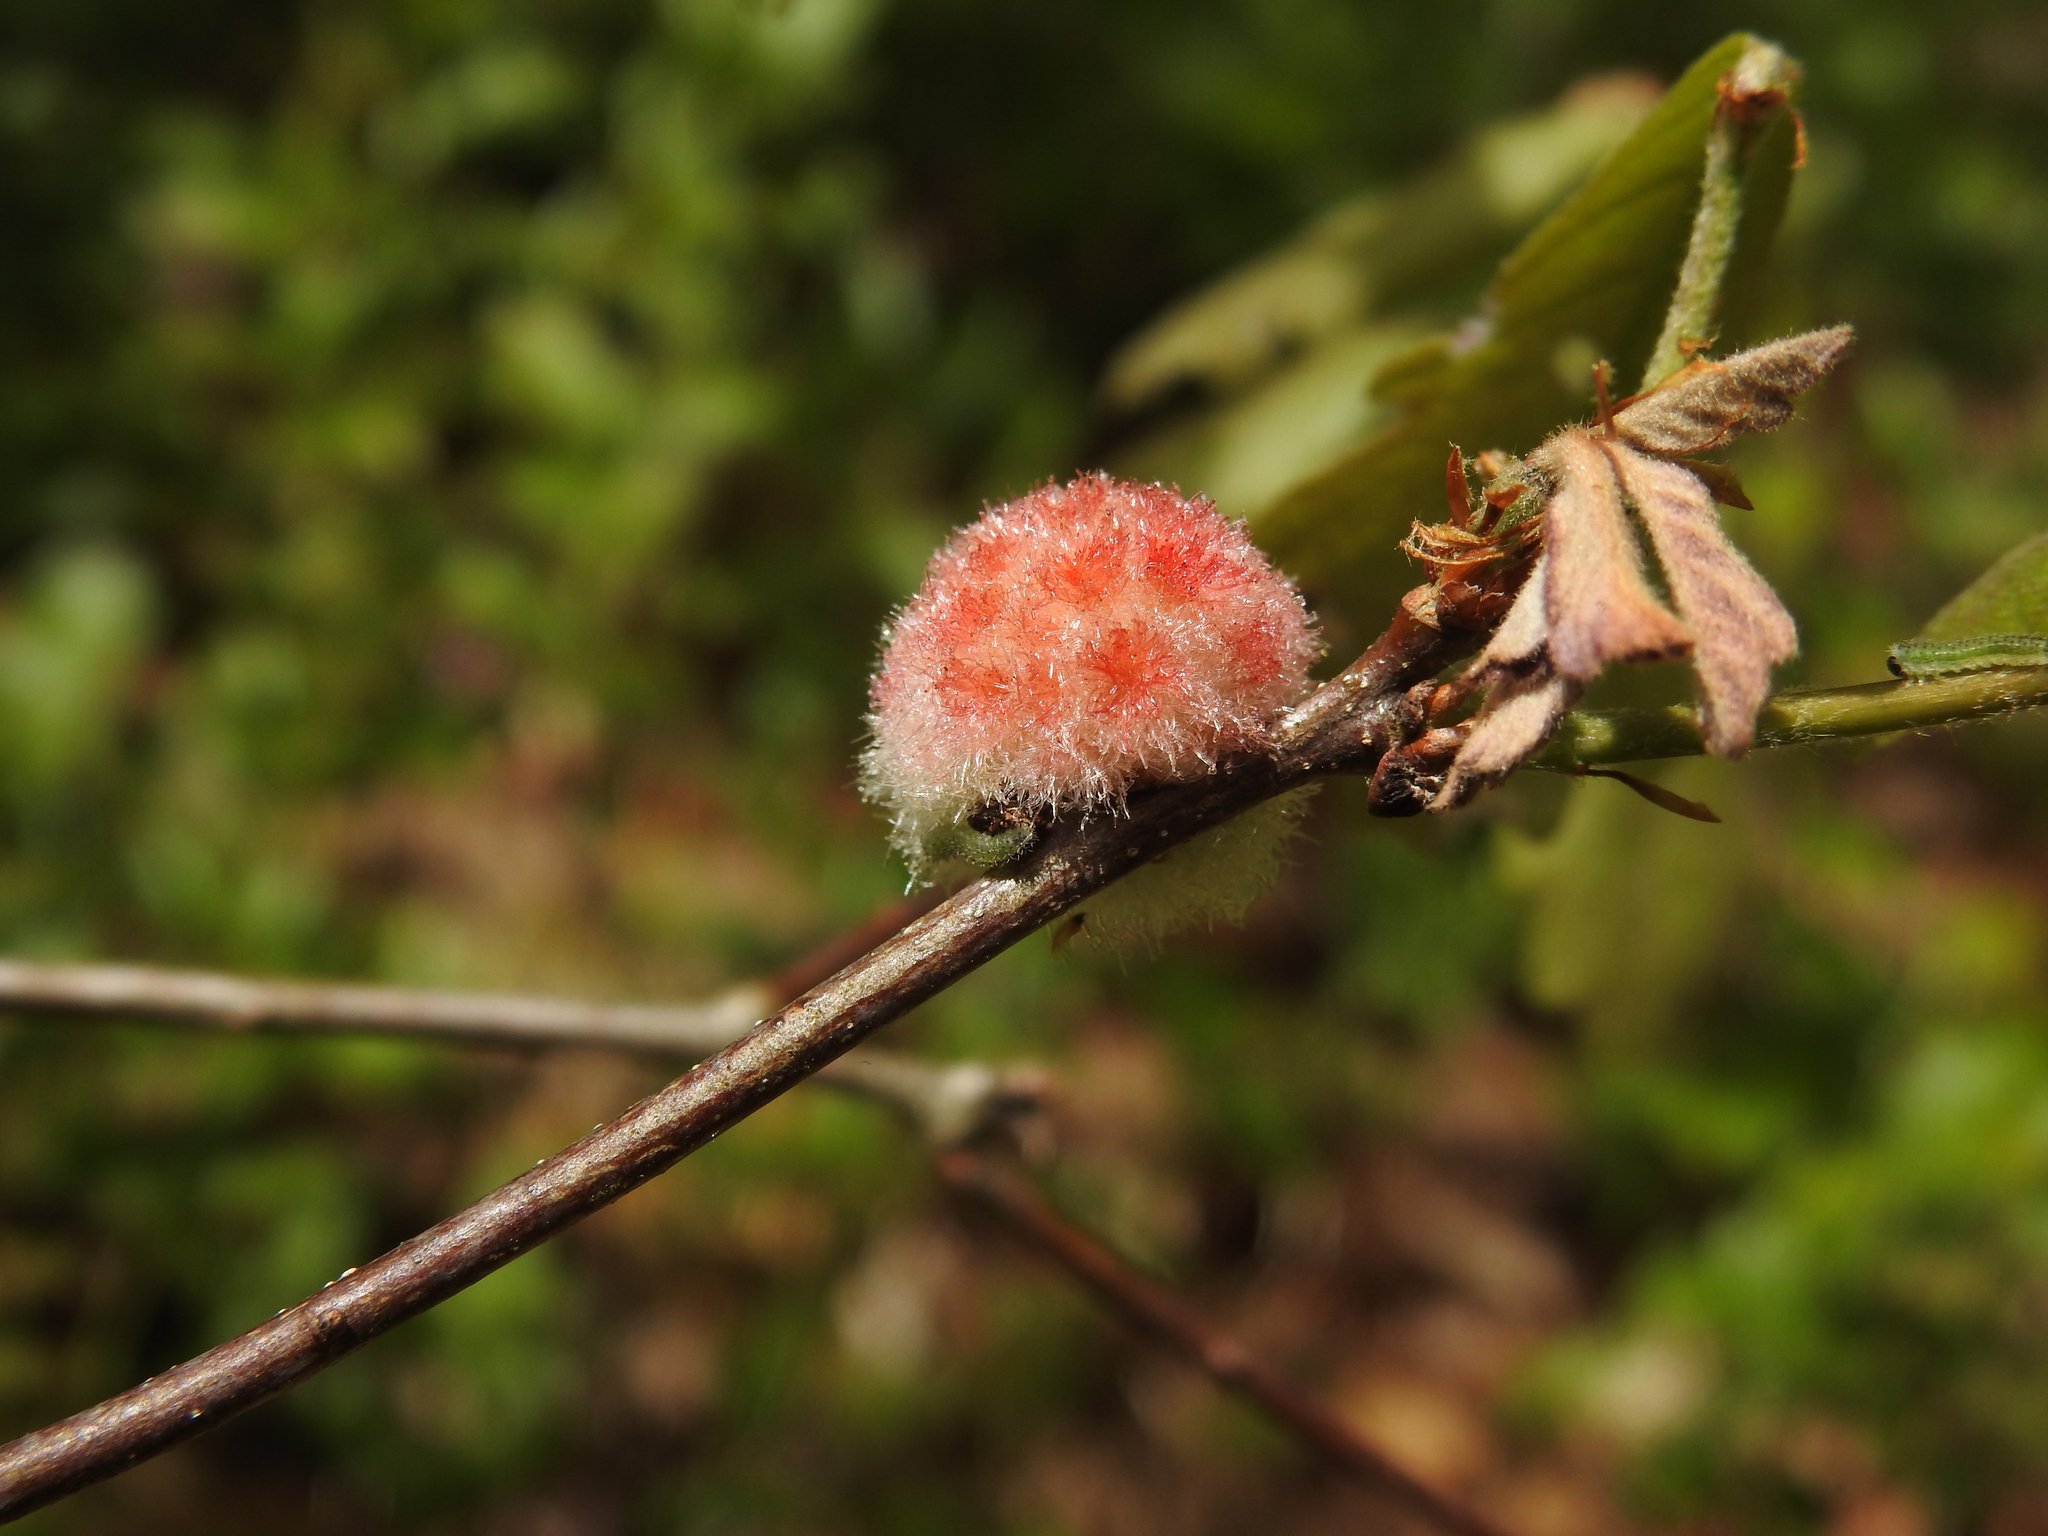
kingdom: Animalia
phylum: Arthropoda
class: Insecta
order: Hymenoptera
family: Cynipidae
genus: Callirhytis
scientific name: Callirhytis
